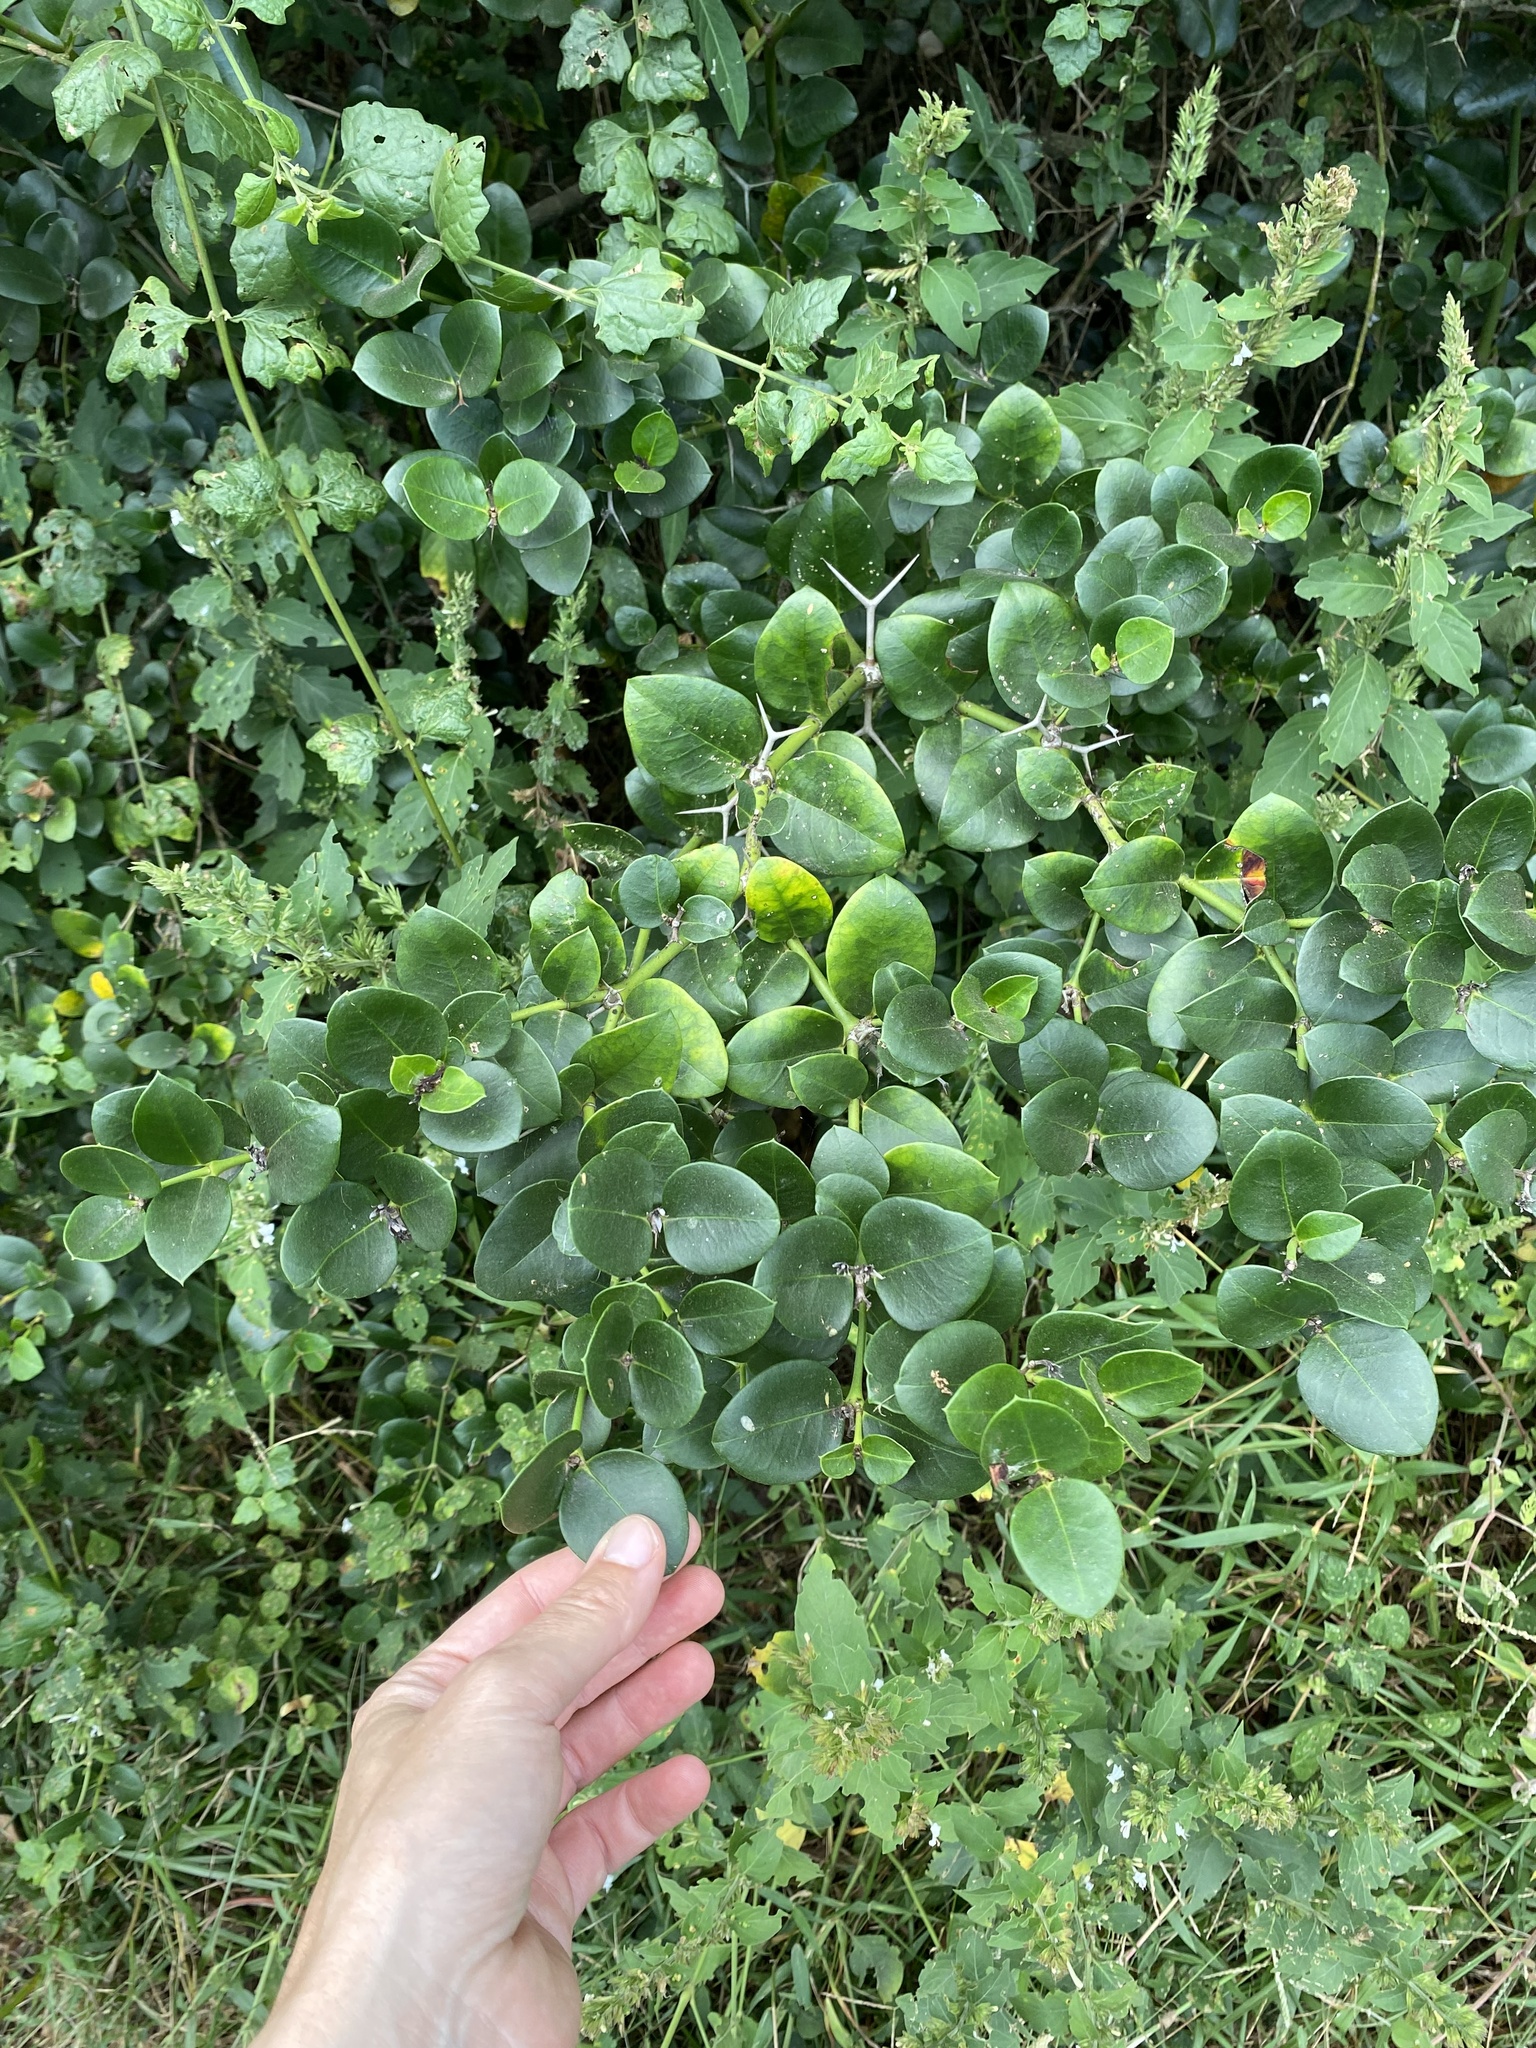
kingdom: Plantae
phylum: Tracheophyta
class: Magnoliopsida
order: Gentianales
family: Apocynaceae
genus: Carissa
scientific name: Carissa macrocarpa
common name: Natal plum
